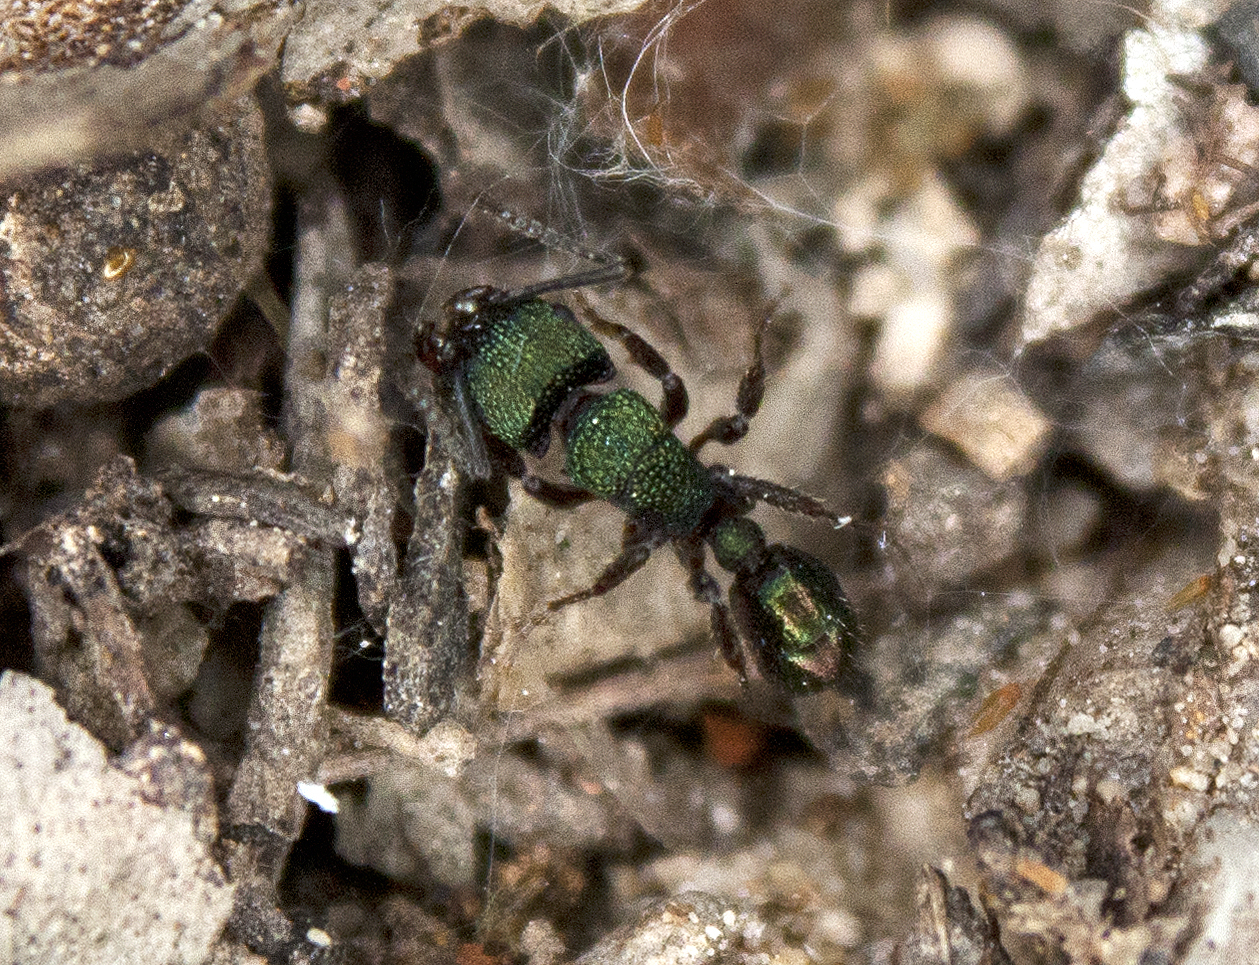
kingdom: Animalia
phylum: Arthropoda
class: Insecta
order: Hymenoptera
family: Formicidae
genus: Rhytidoponera
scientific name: Rhytidoponera metallica
